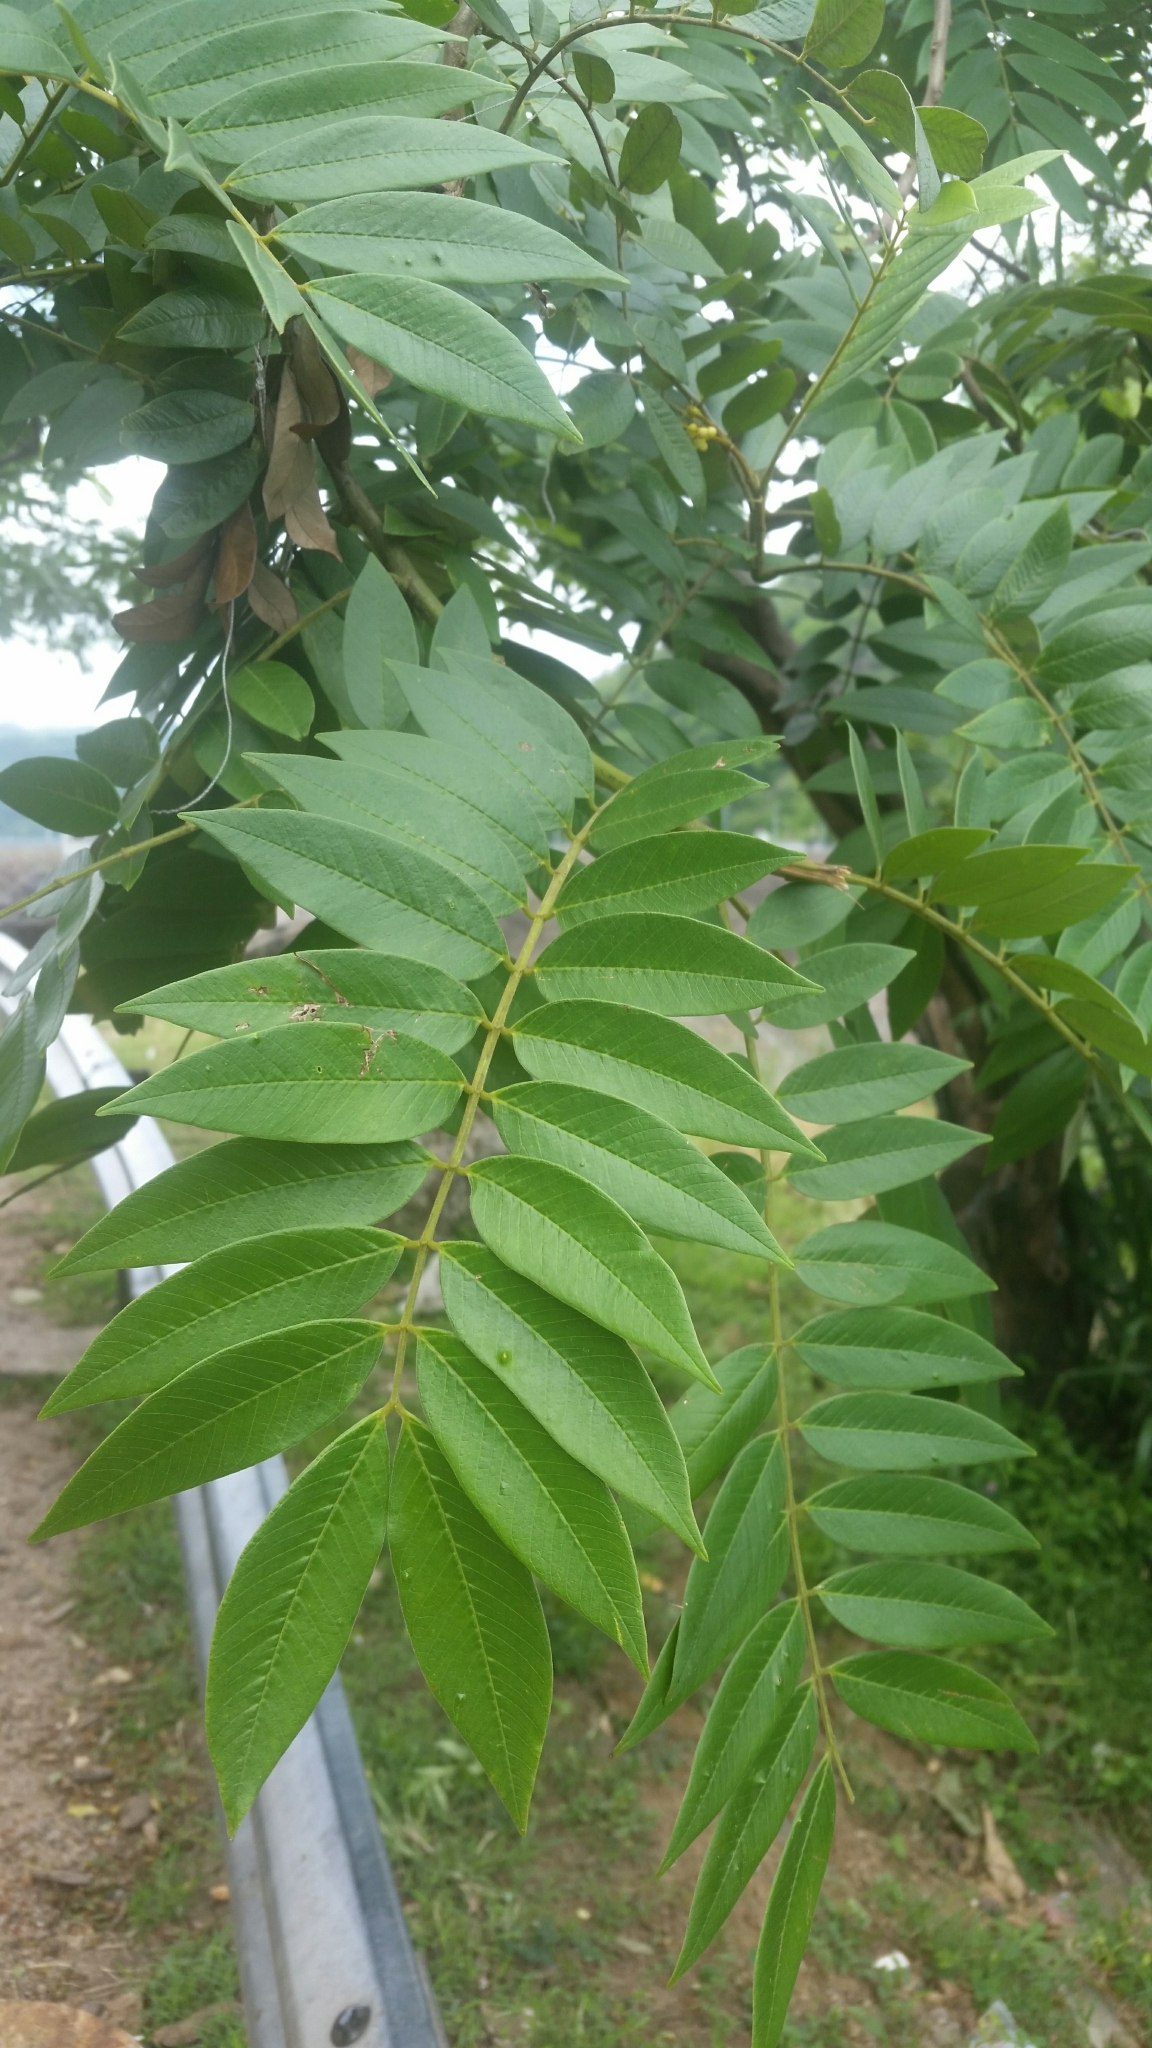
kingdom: Plantae
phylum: Tracheophyta
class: Magnoliopsida
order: Fabales
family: Fabaceae
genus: Senna
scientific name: Senna spectabilis
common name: Casia amarilla
